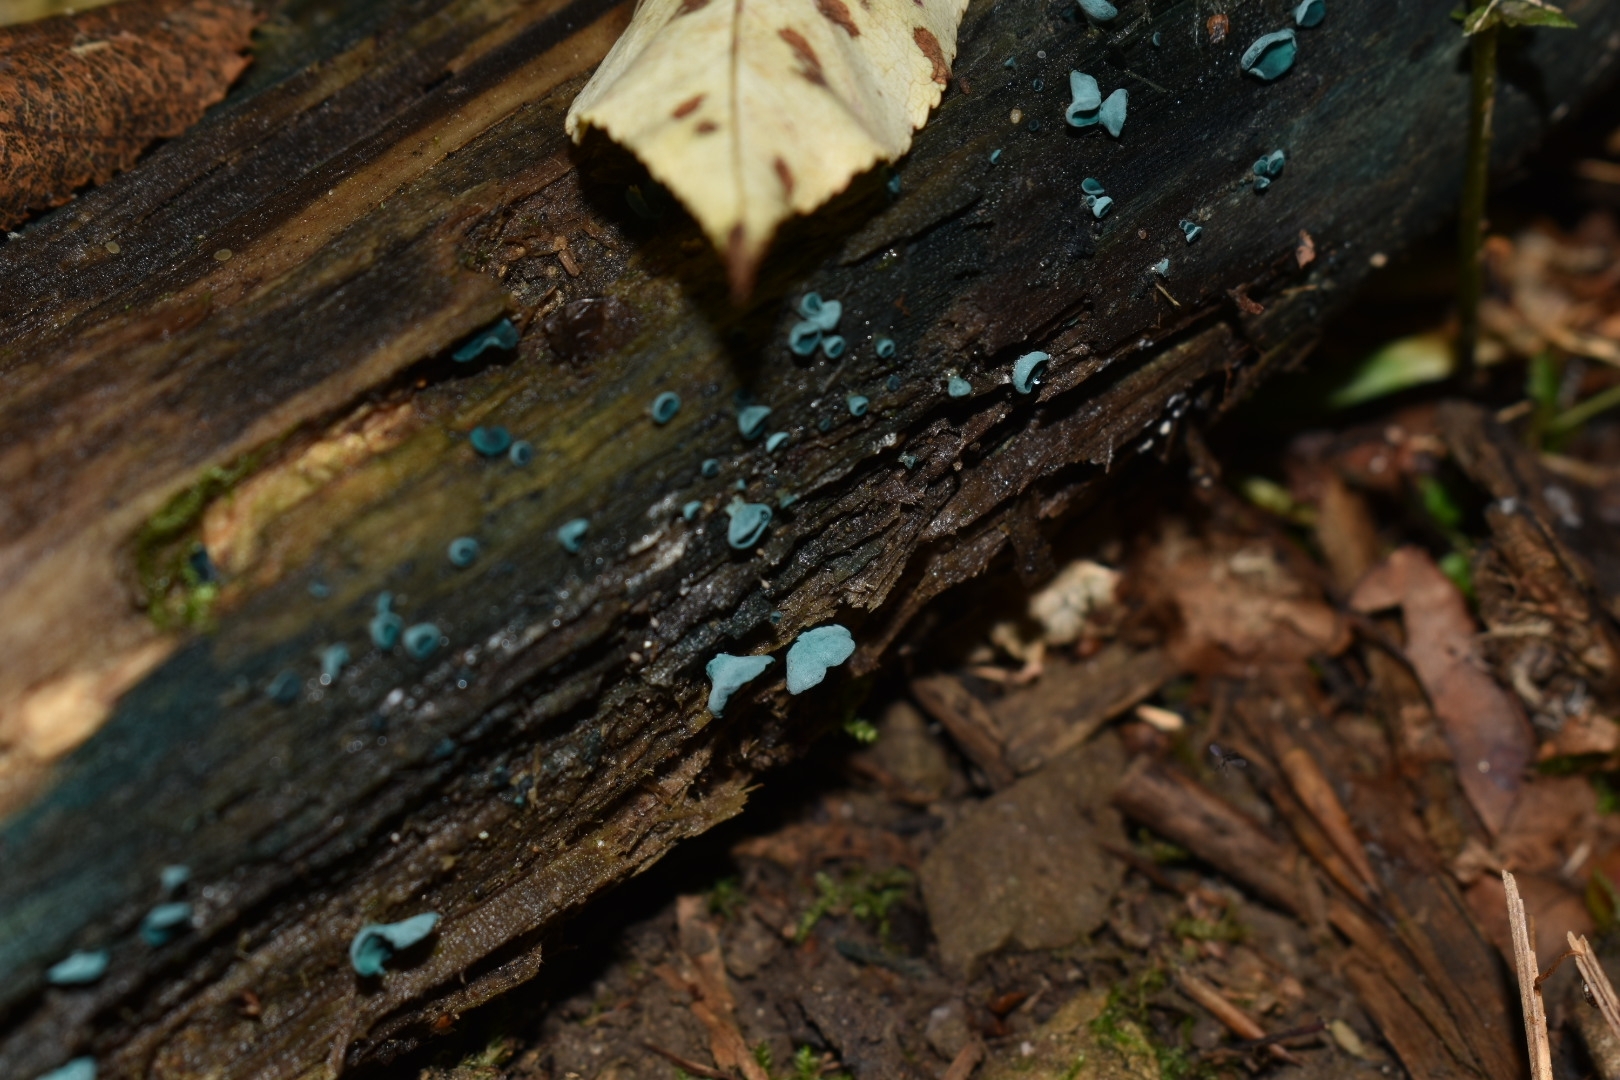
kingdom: Fungi
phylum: Ascomycota
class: Leotiomycetes
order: Helotiales
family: Chlorociboriaceae
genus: Chlorociboria
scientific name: Chlorociboria aeruginascens
